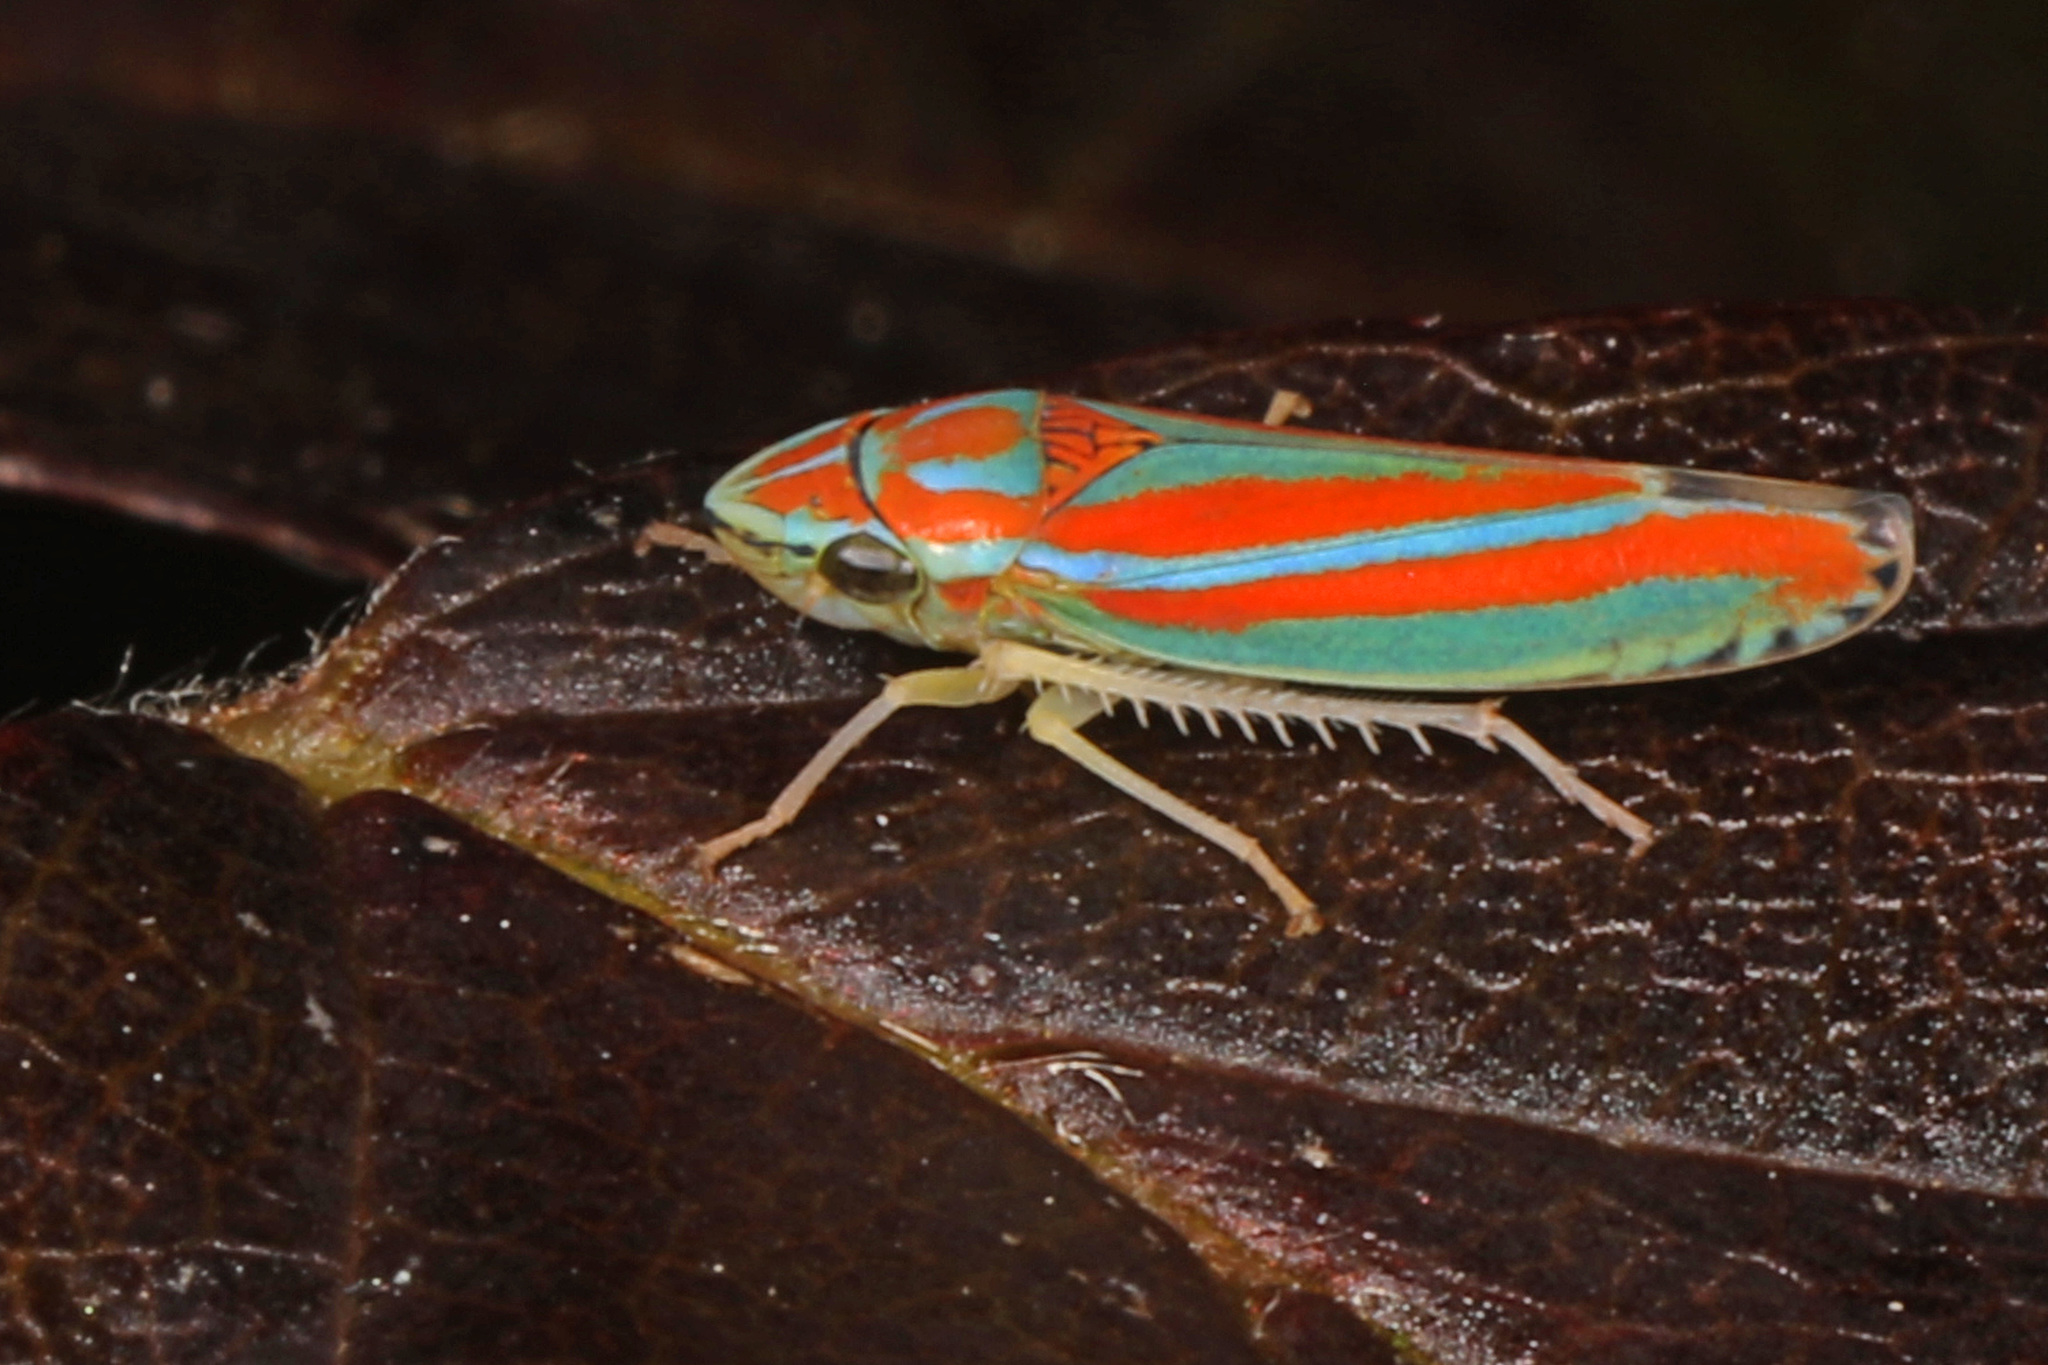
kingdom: Animalia
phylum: Arthropoda
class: Insecta
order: Hemiptera
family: Cicadellidae
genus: Graphocephala
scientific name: Graphocephala versuta
